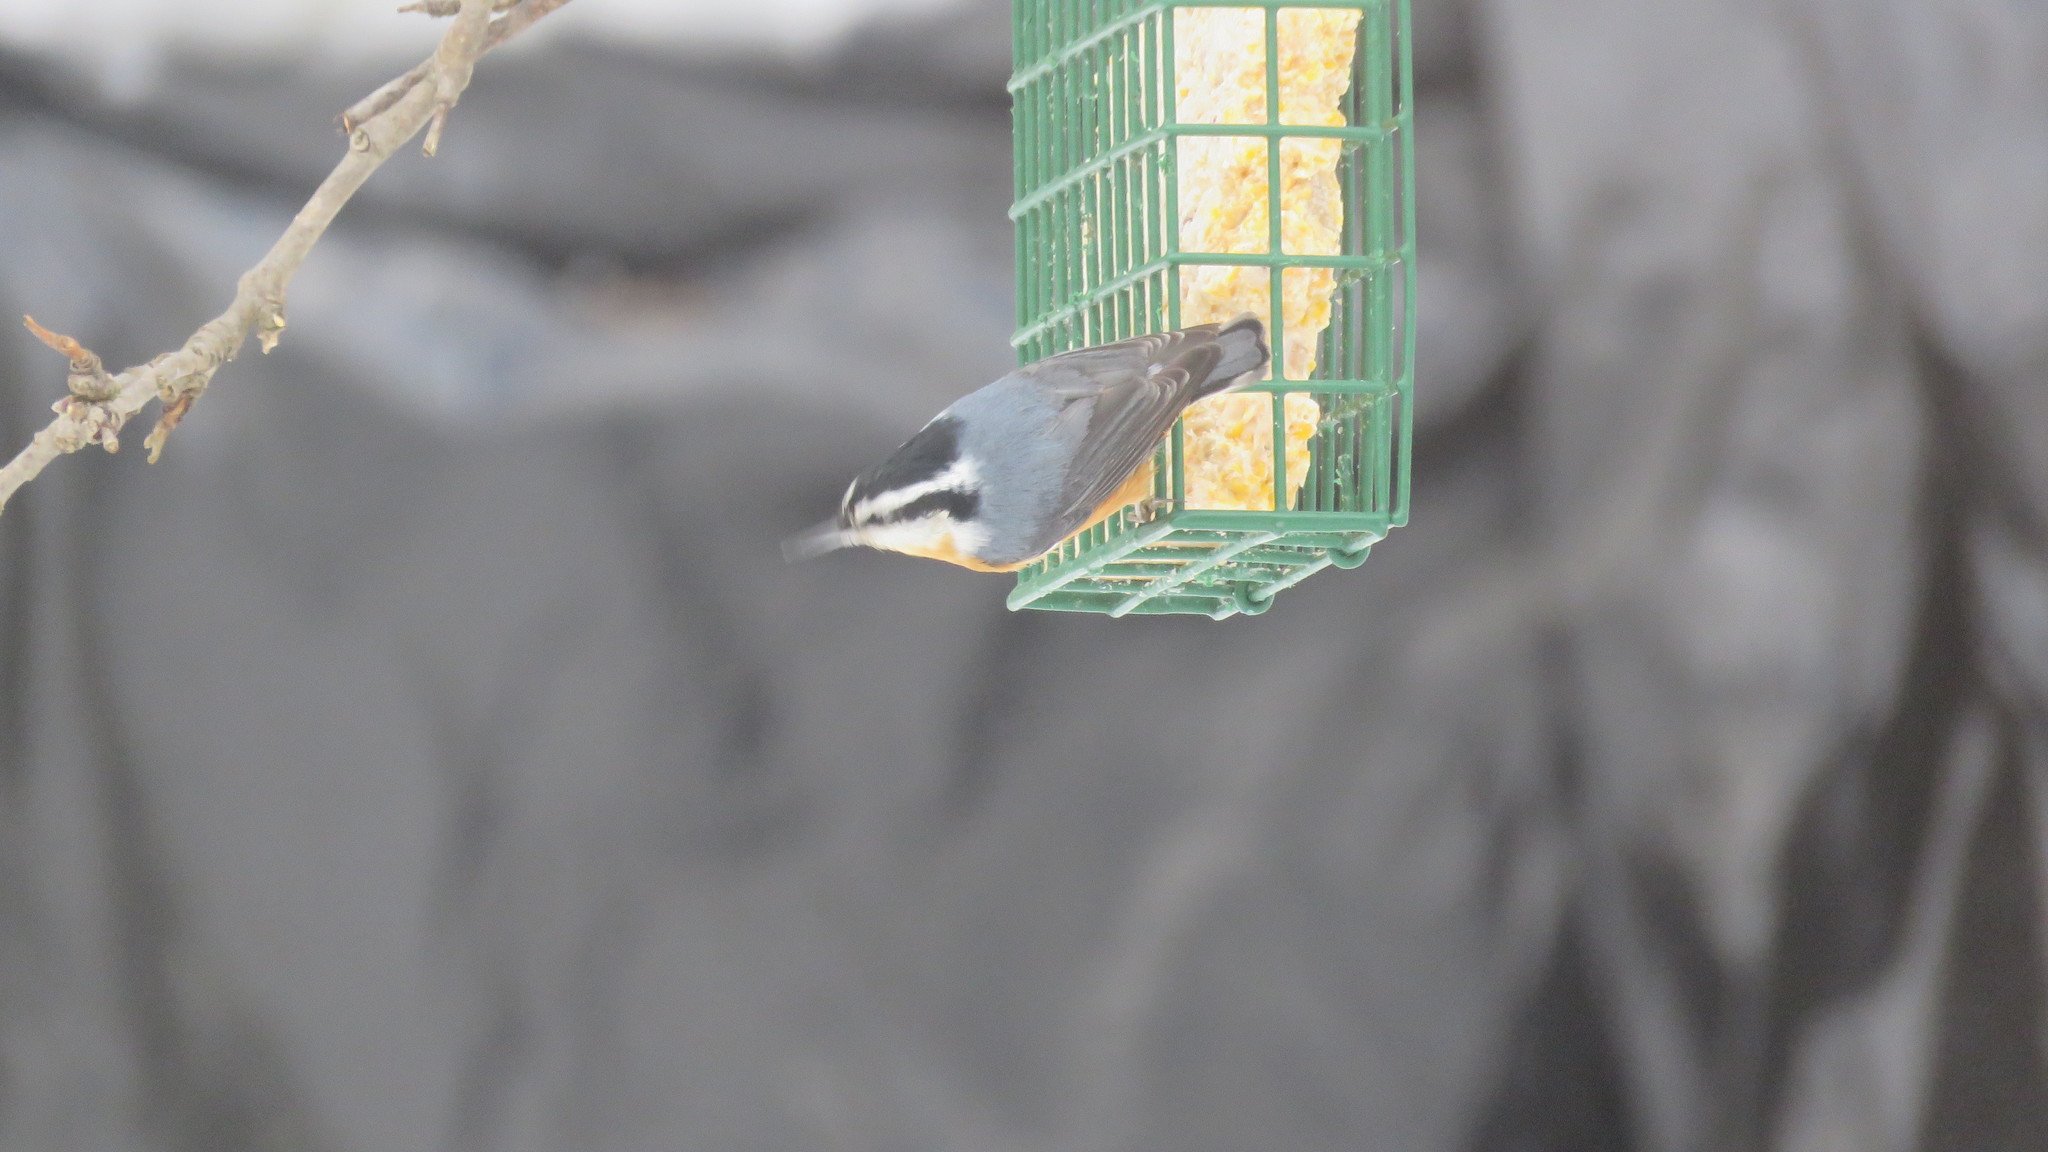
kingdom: Animalia
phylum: Chordata
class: Aves
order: Passeriformes
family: Sittidae
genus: Sitta
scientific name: Sitta canadensis
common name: Red-breasted nuthatch
